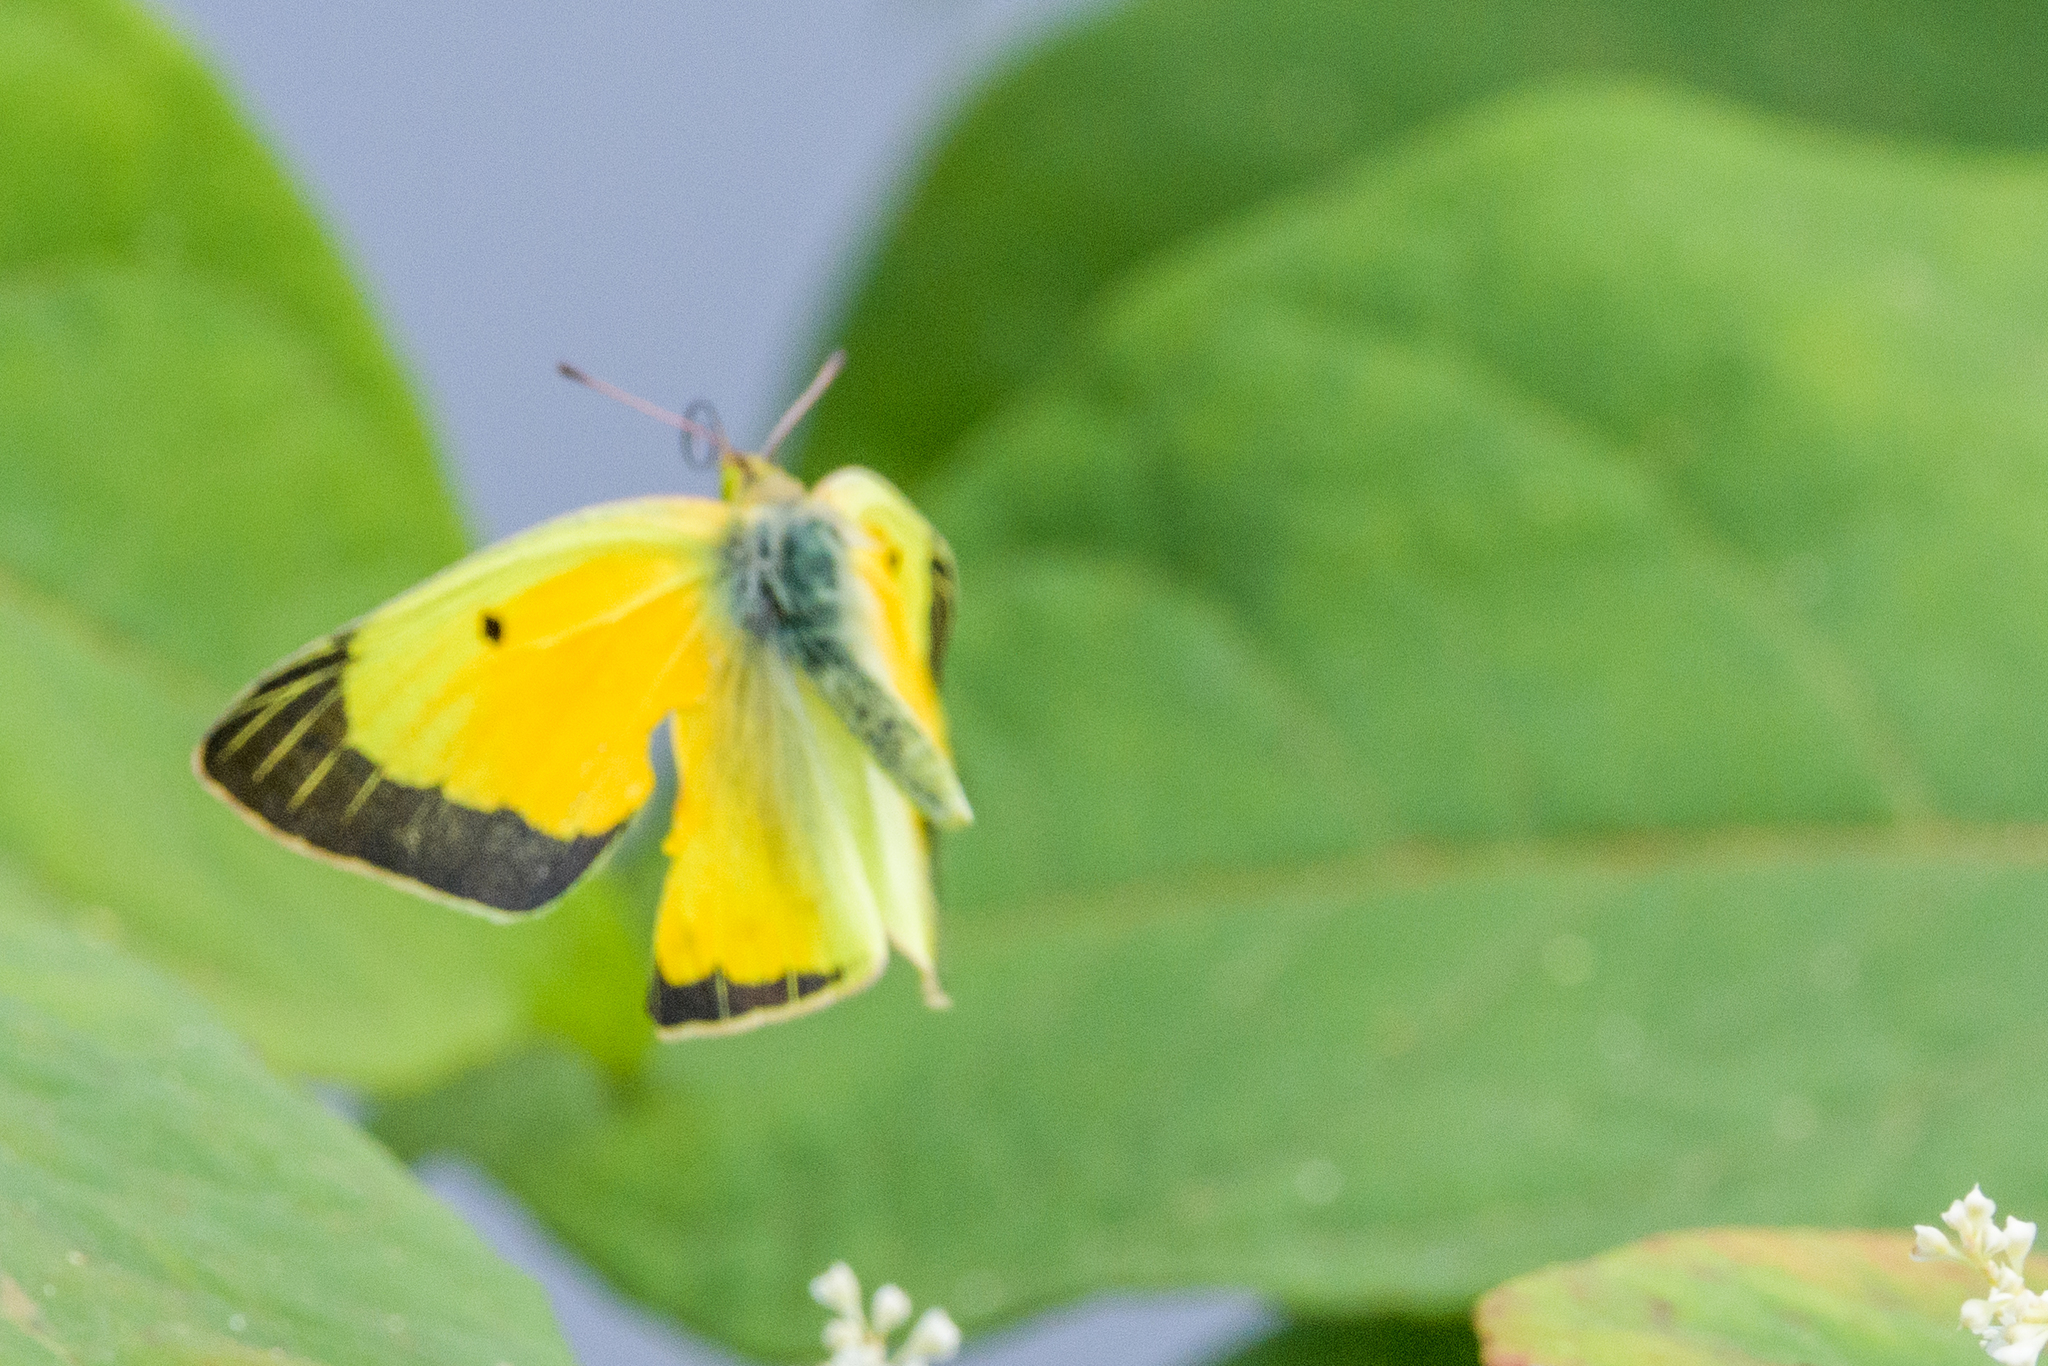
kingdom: Animalia
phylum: Arthropoda
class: Insecta
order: Lepidoptera
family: Pieridae
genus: Colias
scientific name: Colias eurytheme
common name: Alfalfa butterfly
